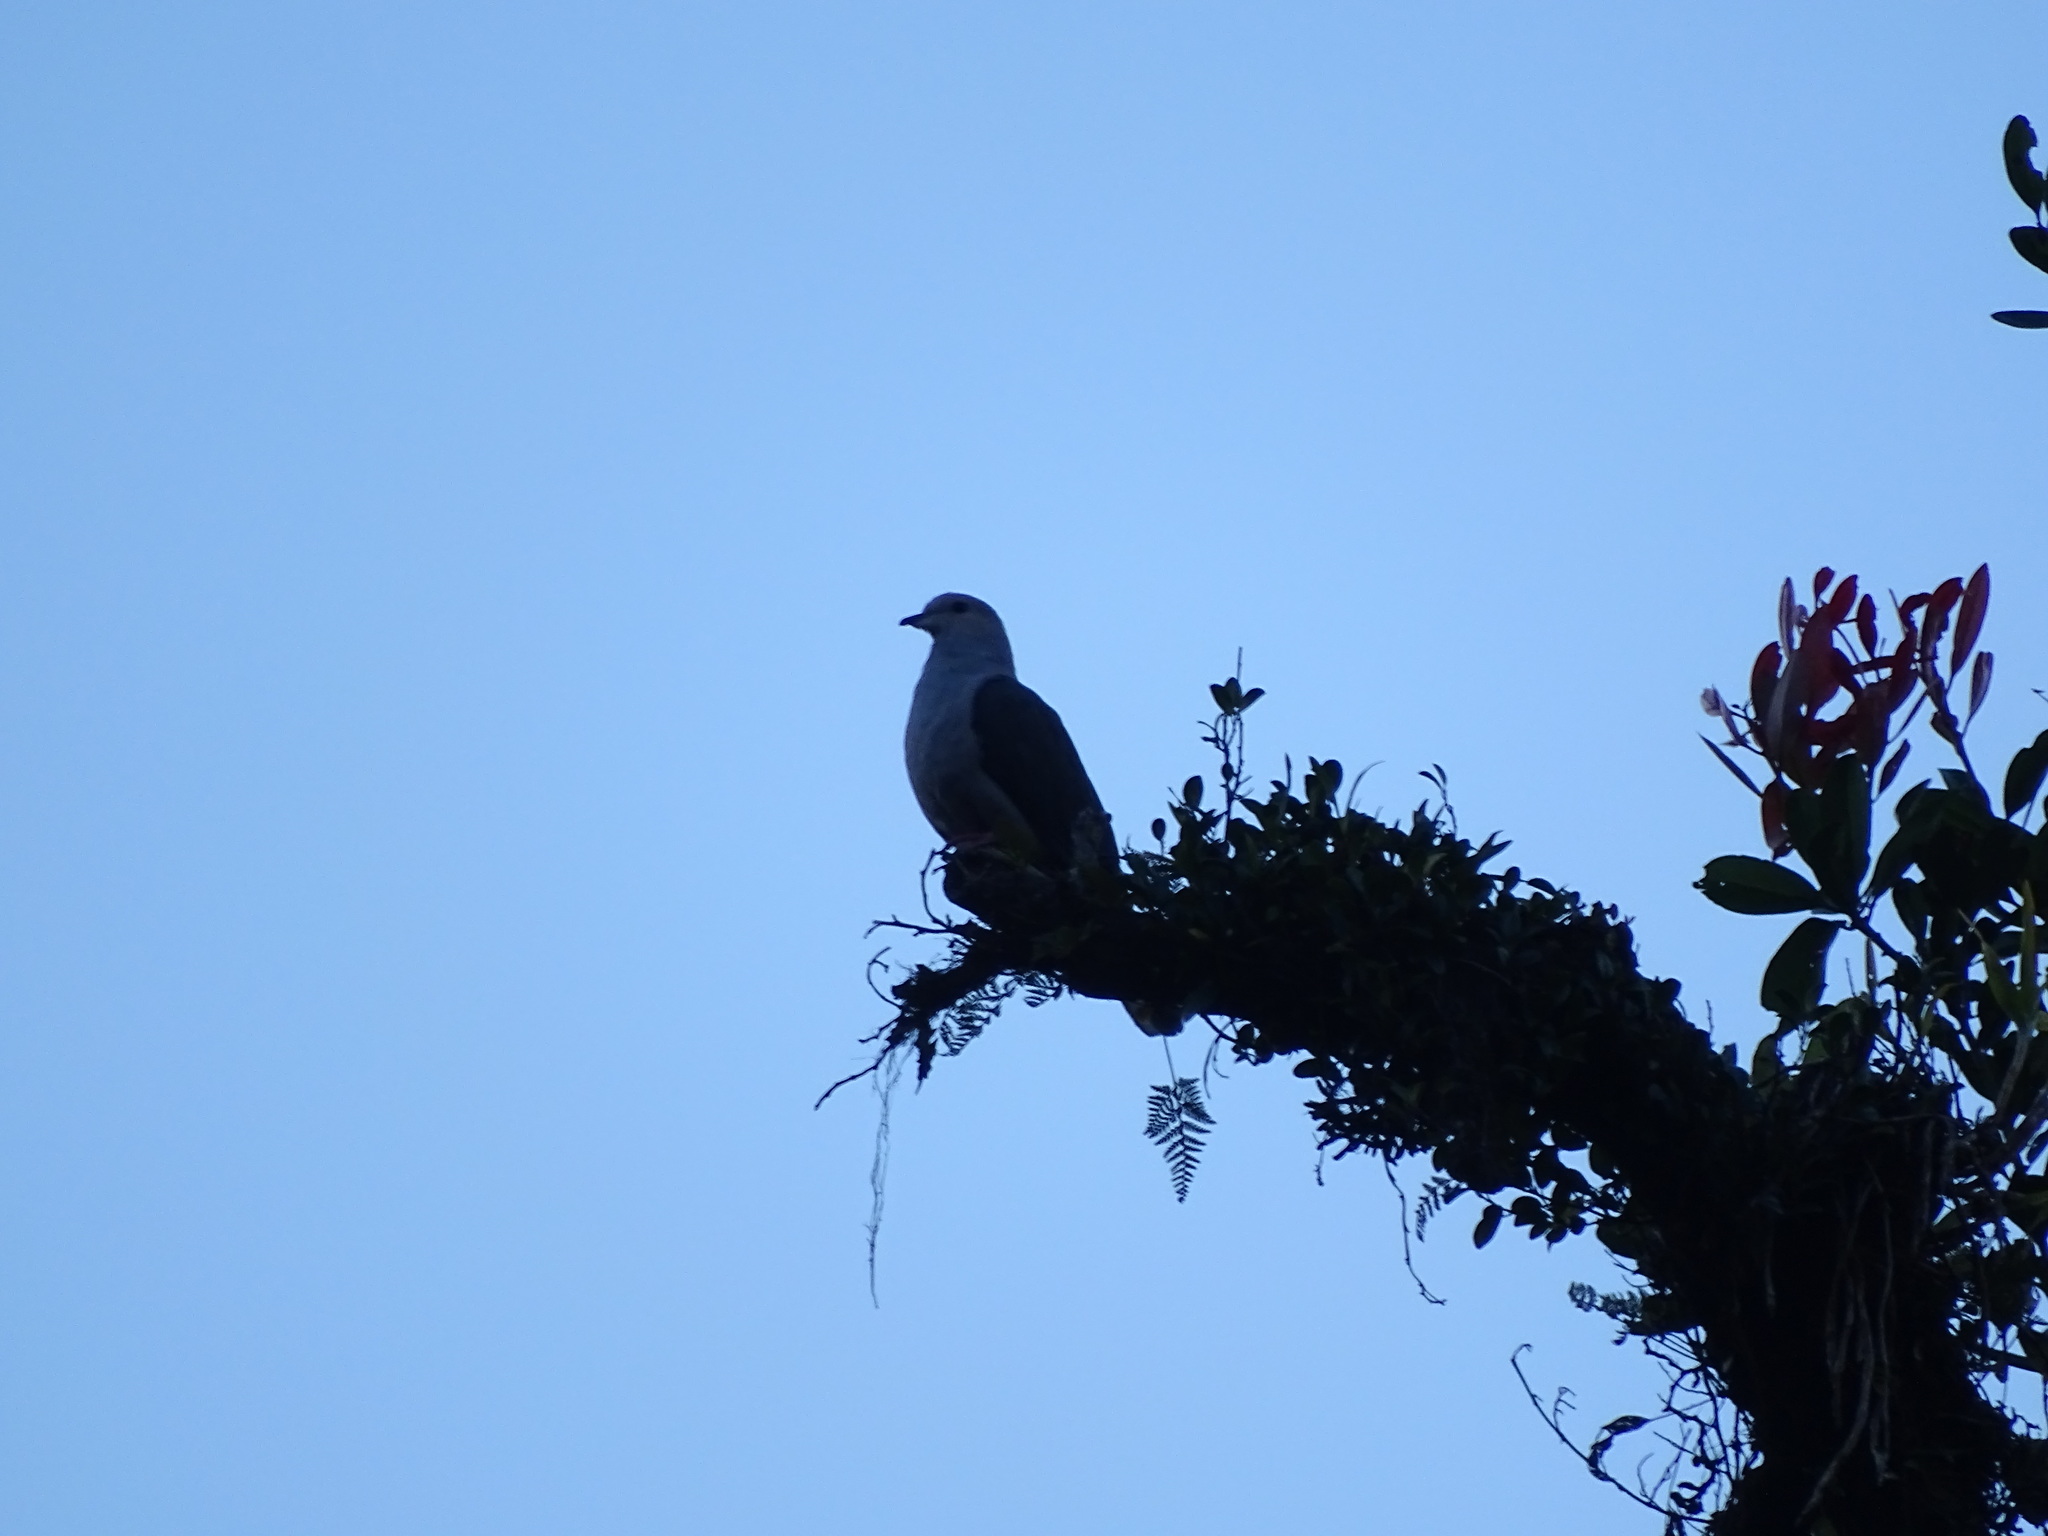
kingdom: Animalia
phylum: Chordata
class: Aves
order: Columbiformes
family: Columbidae
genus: Ducula
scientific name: Ducula lacernulata
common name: Dark-backed imperial pigeon
